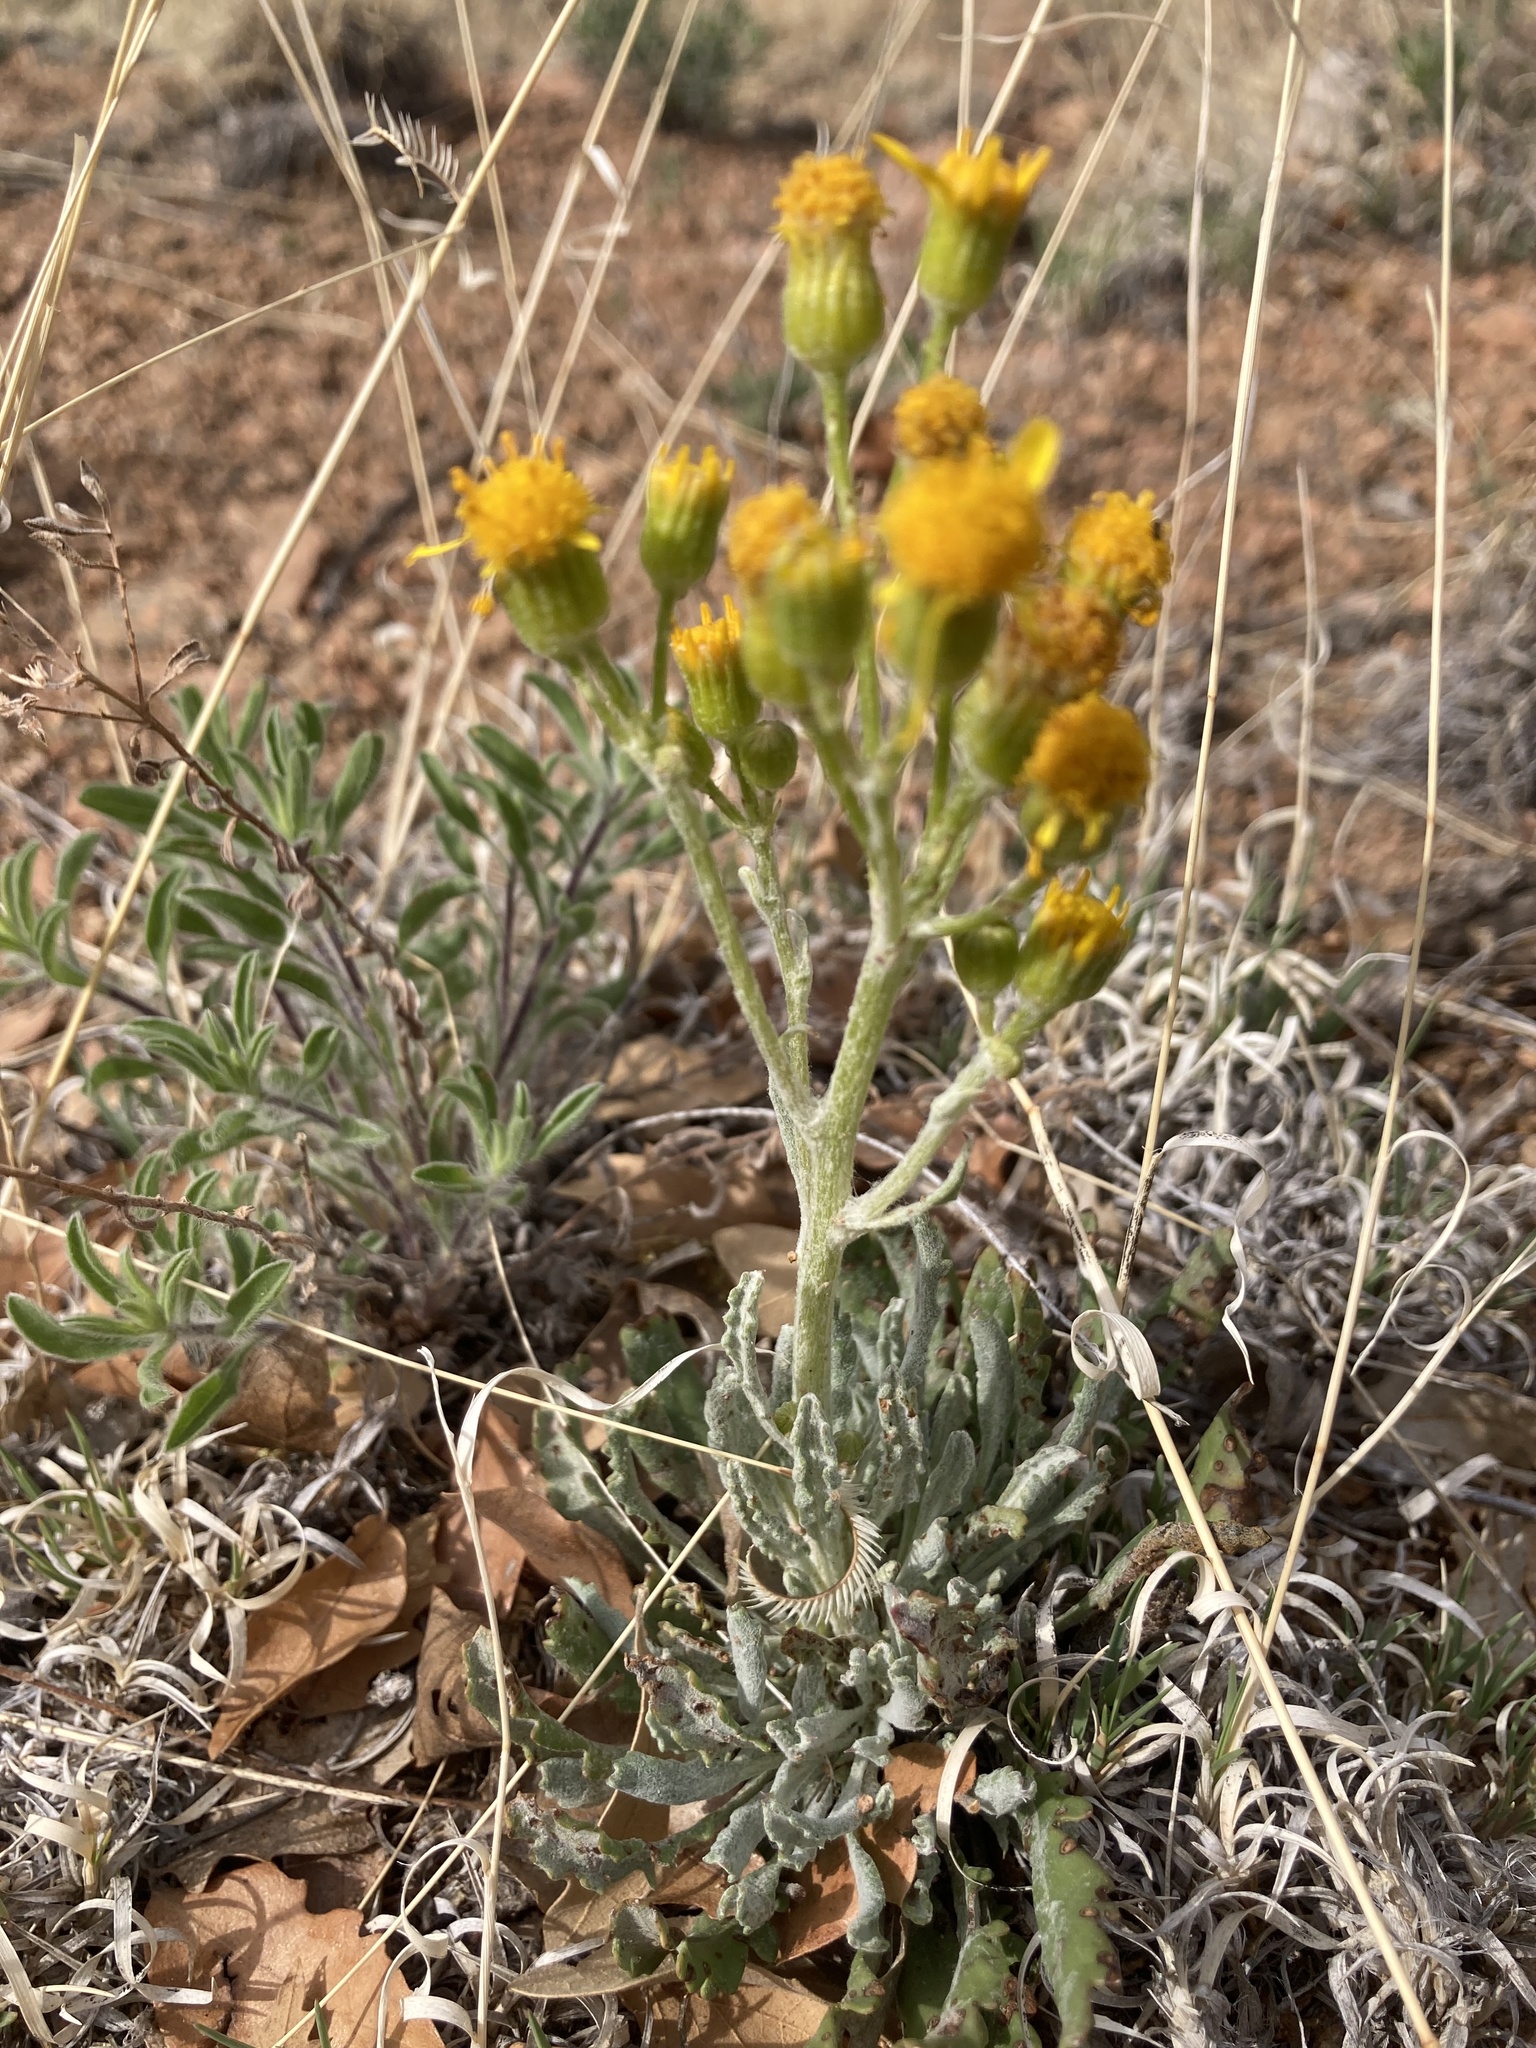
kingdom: Plantae
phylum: Tracheophyta
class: Magnoliopsida
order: Asterales
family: Asteraceae
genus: Packera
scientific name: Packera cana
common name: Woolly groundsel
